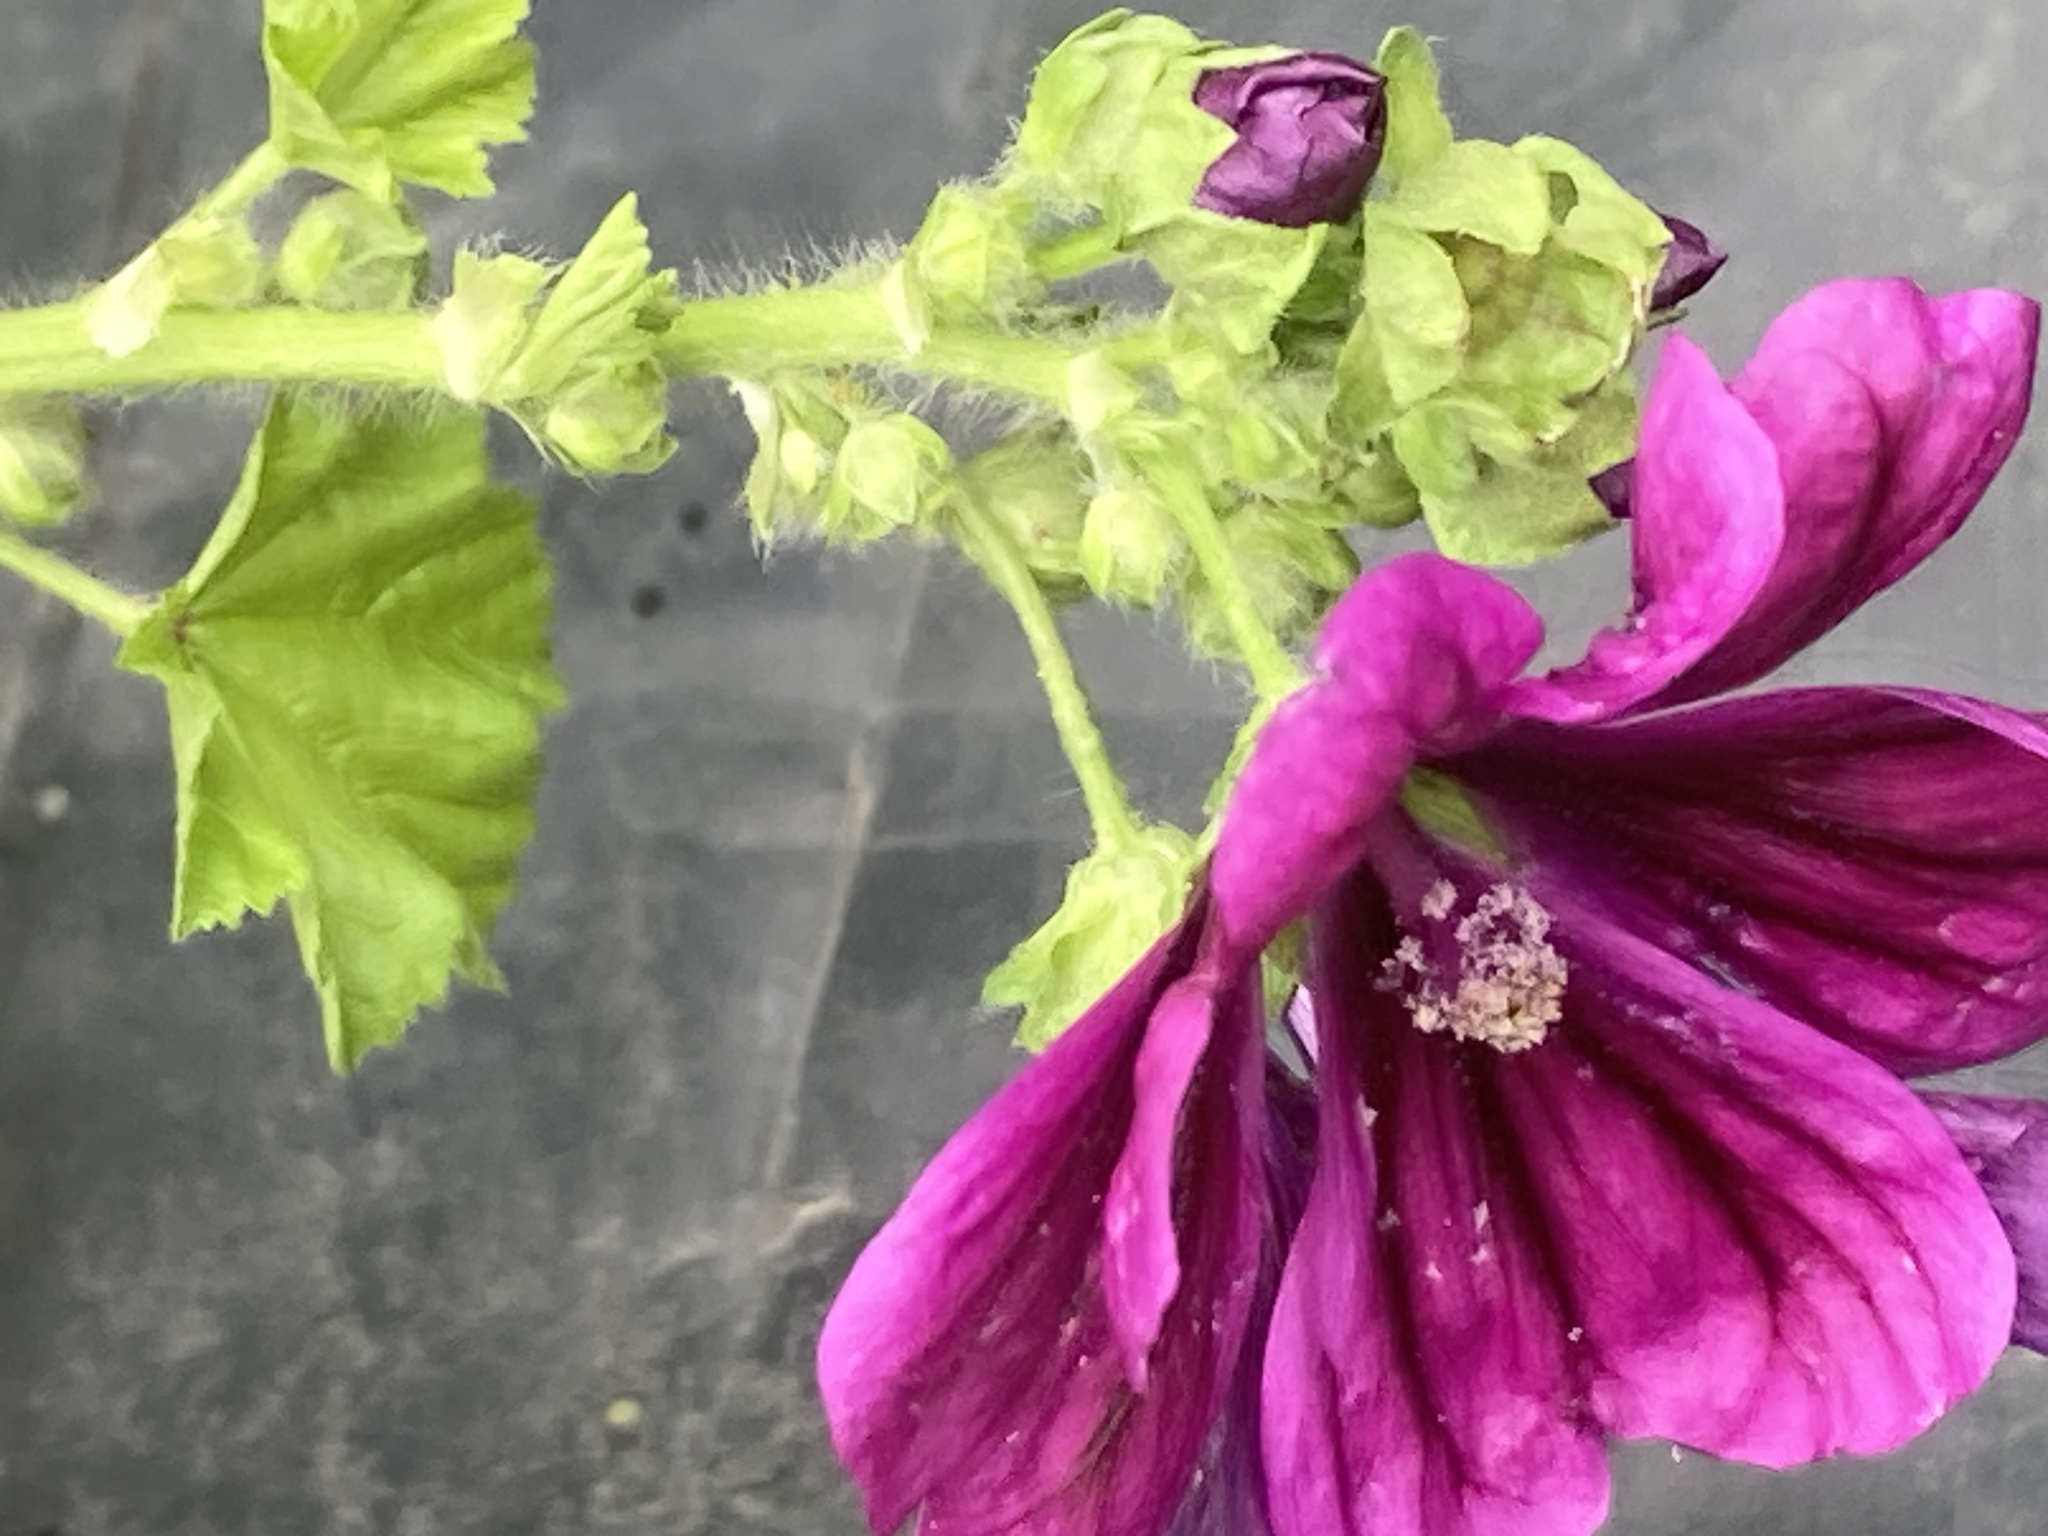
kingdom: Plantae
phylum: Tracheophyta
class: Magnoliopsida
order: Malvales
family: Malvaceae
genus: Malva
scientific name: Malva sylvestris
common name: Common mallow
